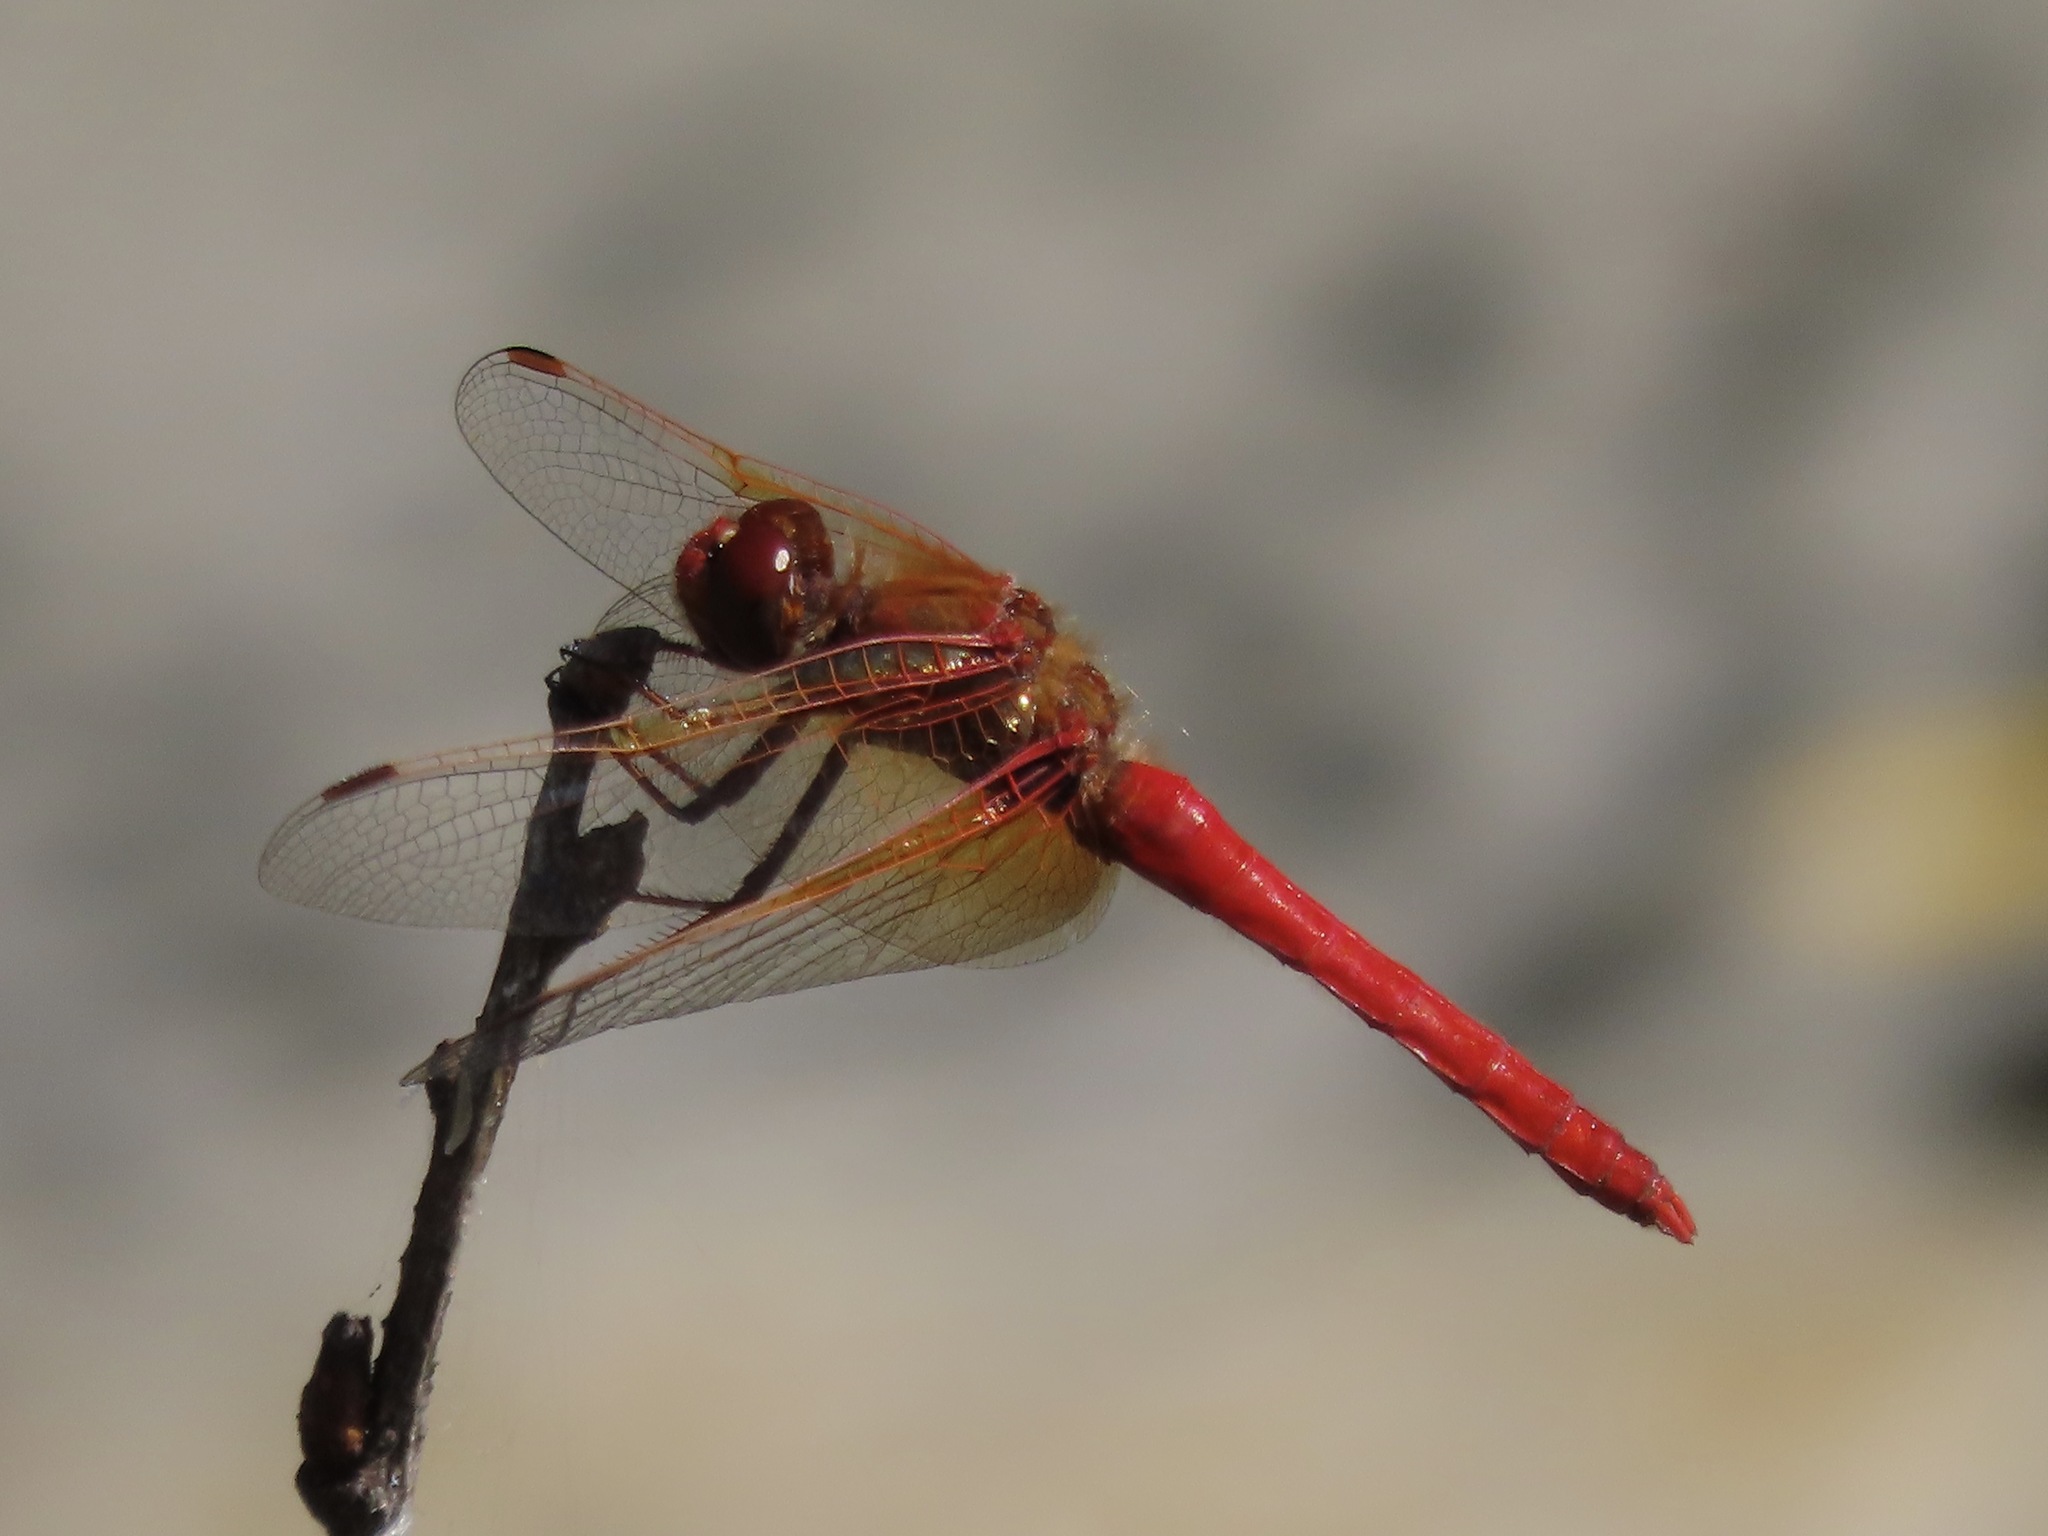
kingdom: Animalia
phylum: Arthropoda
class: Insecta
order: Odonata
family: Libellulidae
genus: Sympetrum
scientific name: Sympetrum illotum
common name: Cardinal meadowhawk
